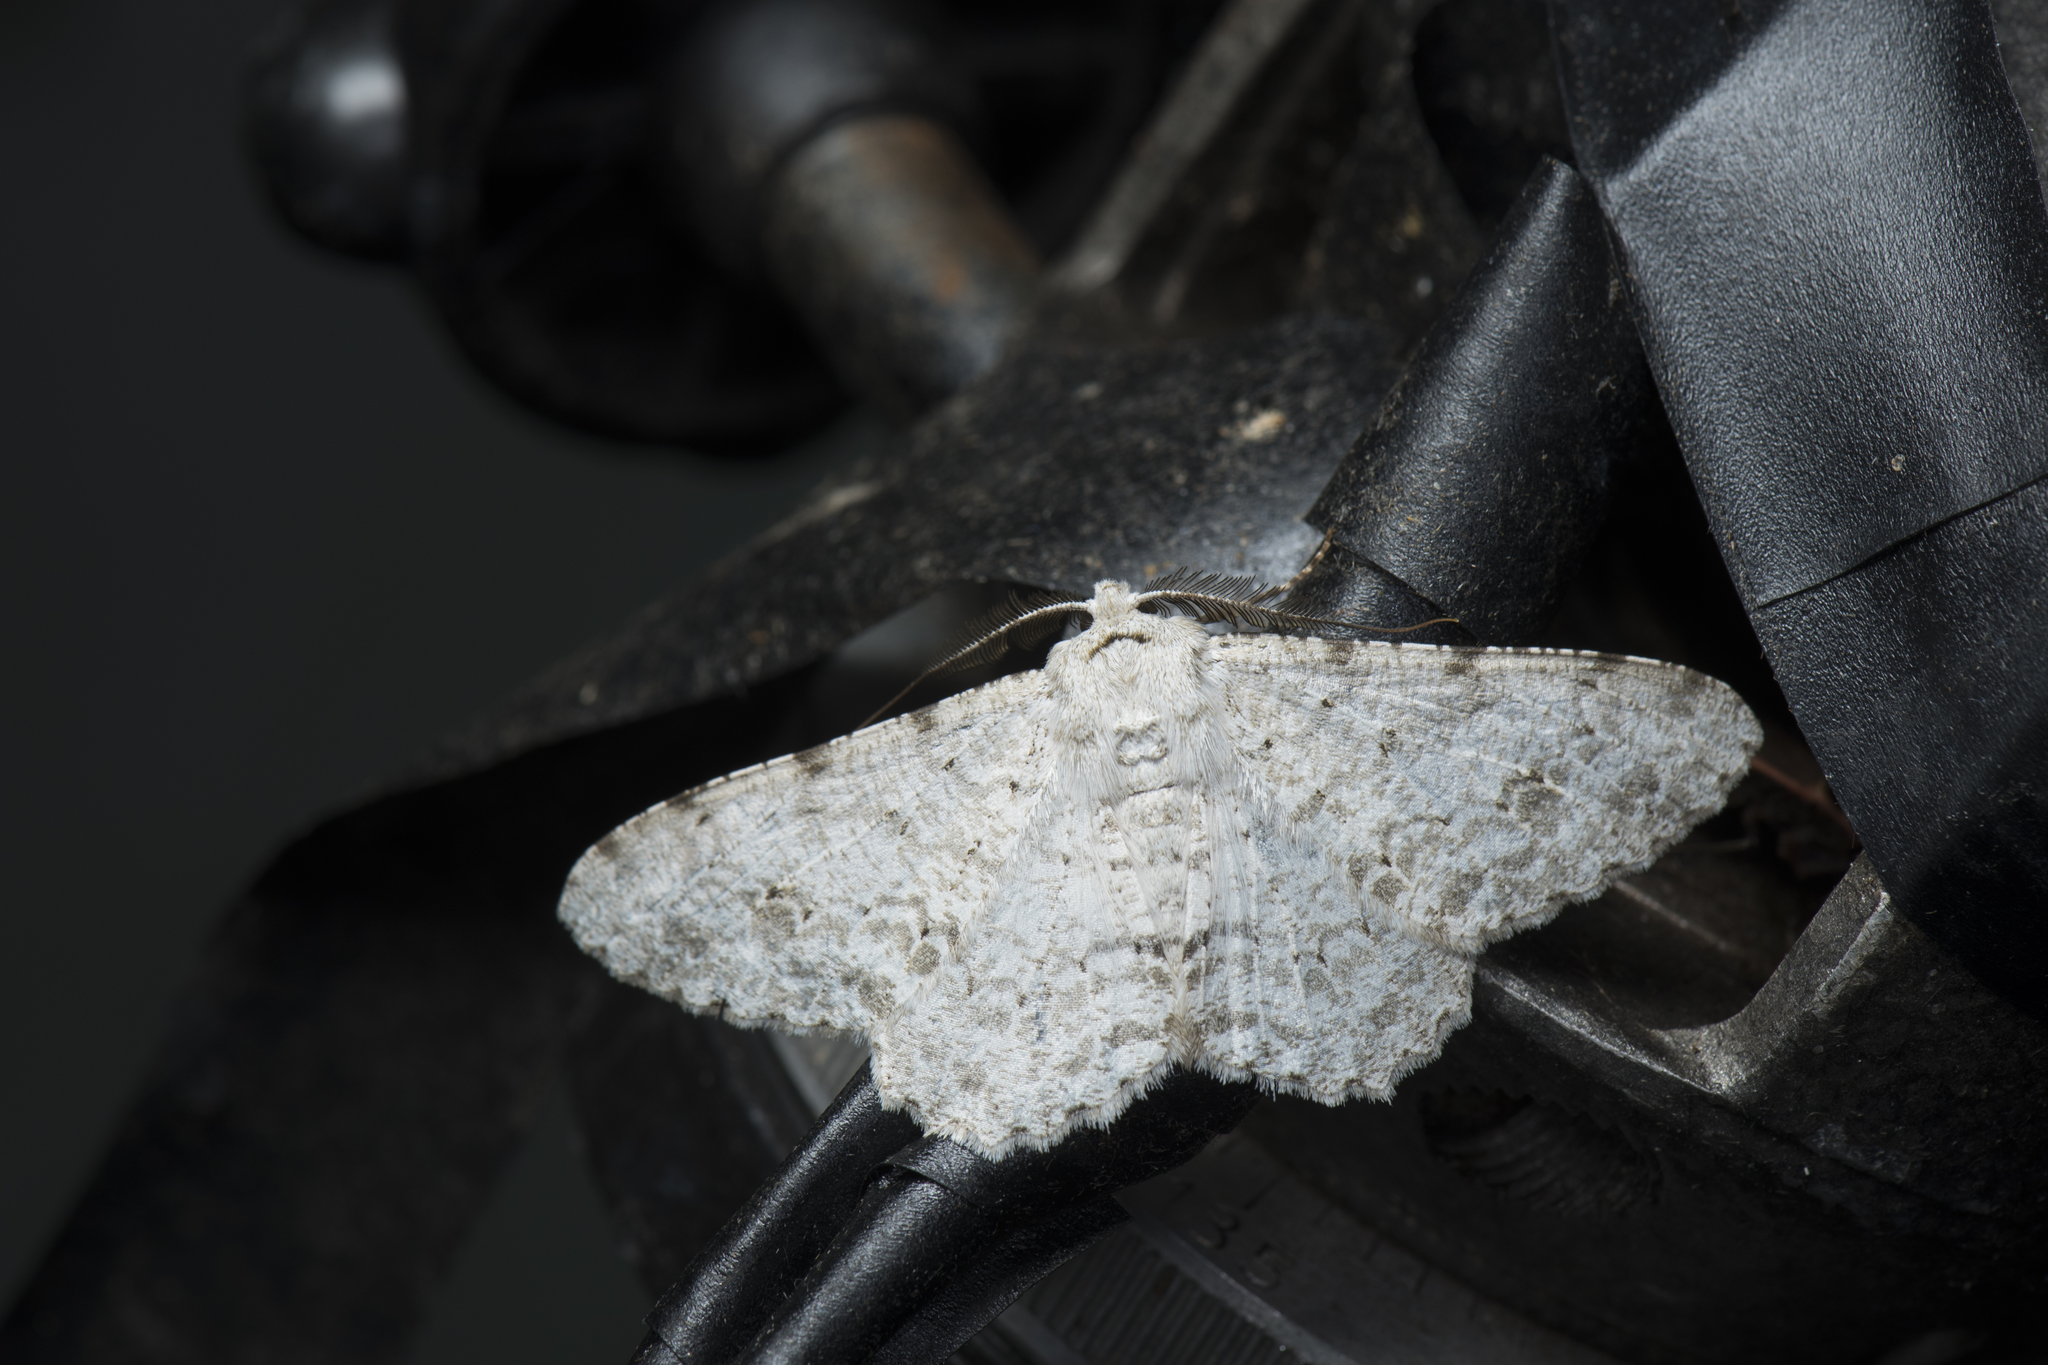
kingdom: Animalia
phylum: Arthropoda
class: Insecta
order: Lepidoptera
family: Geometridae
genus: Lassaba
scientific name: Lassaba parvalbidaria
